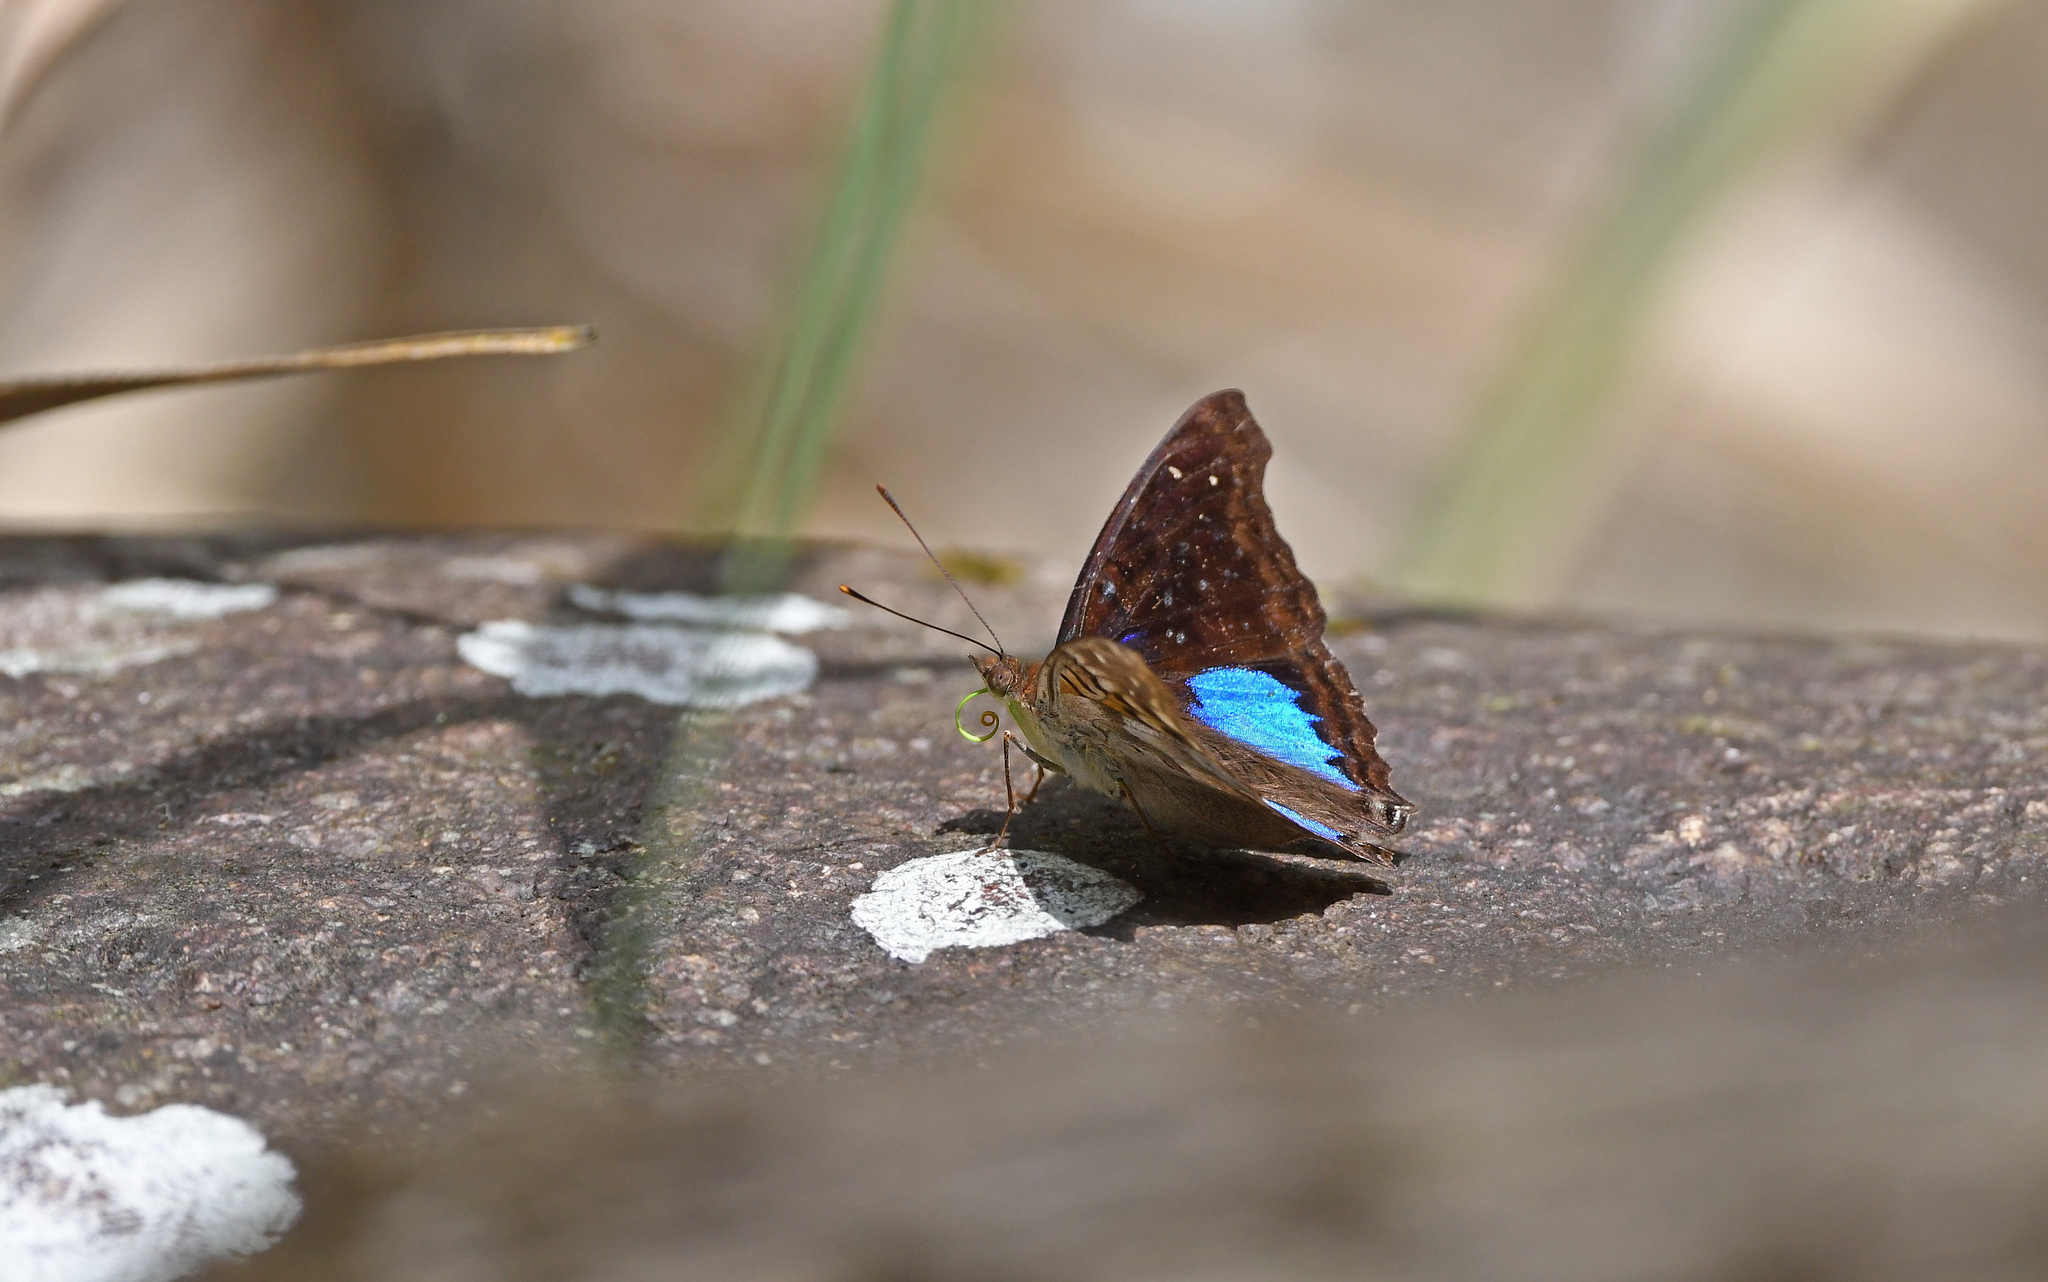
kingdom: Animalia
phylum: Arthropoda
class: Insecta
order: Lepidoptera
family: Nymphalidae
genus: Doxocopa
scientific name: Doxocopa cyane
